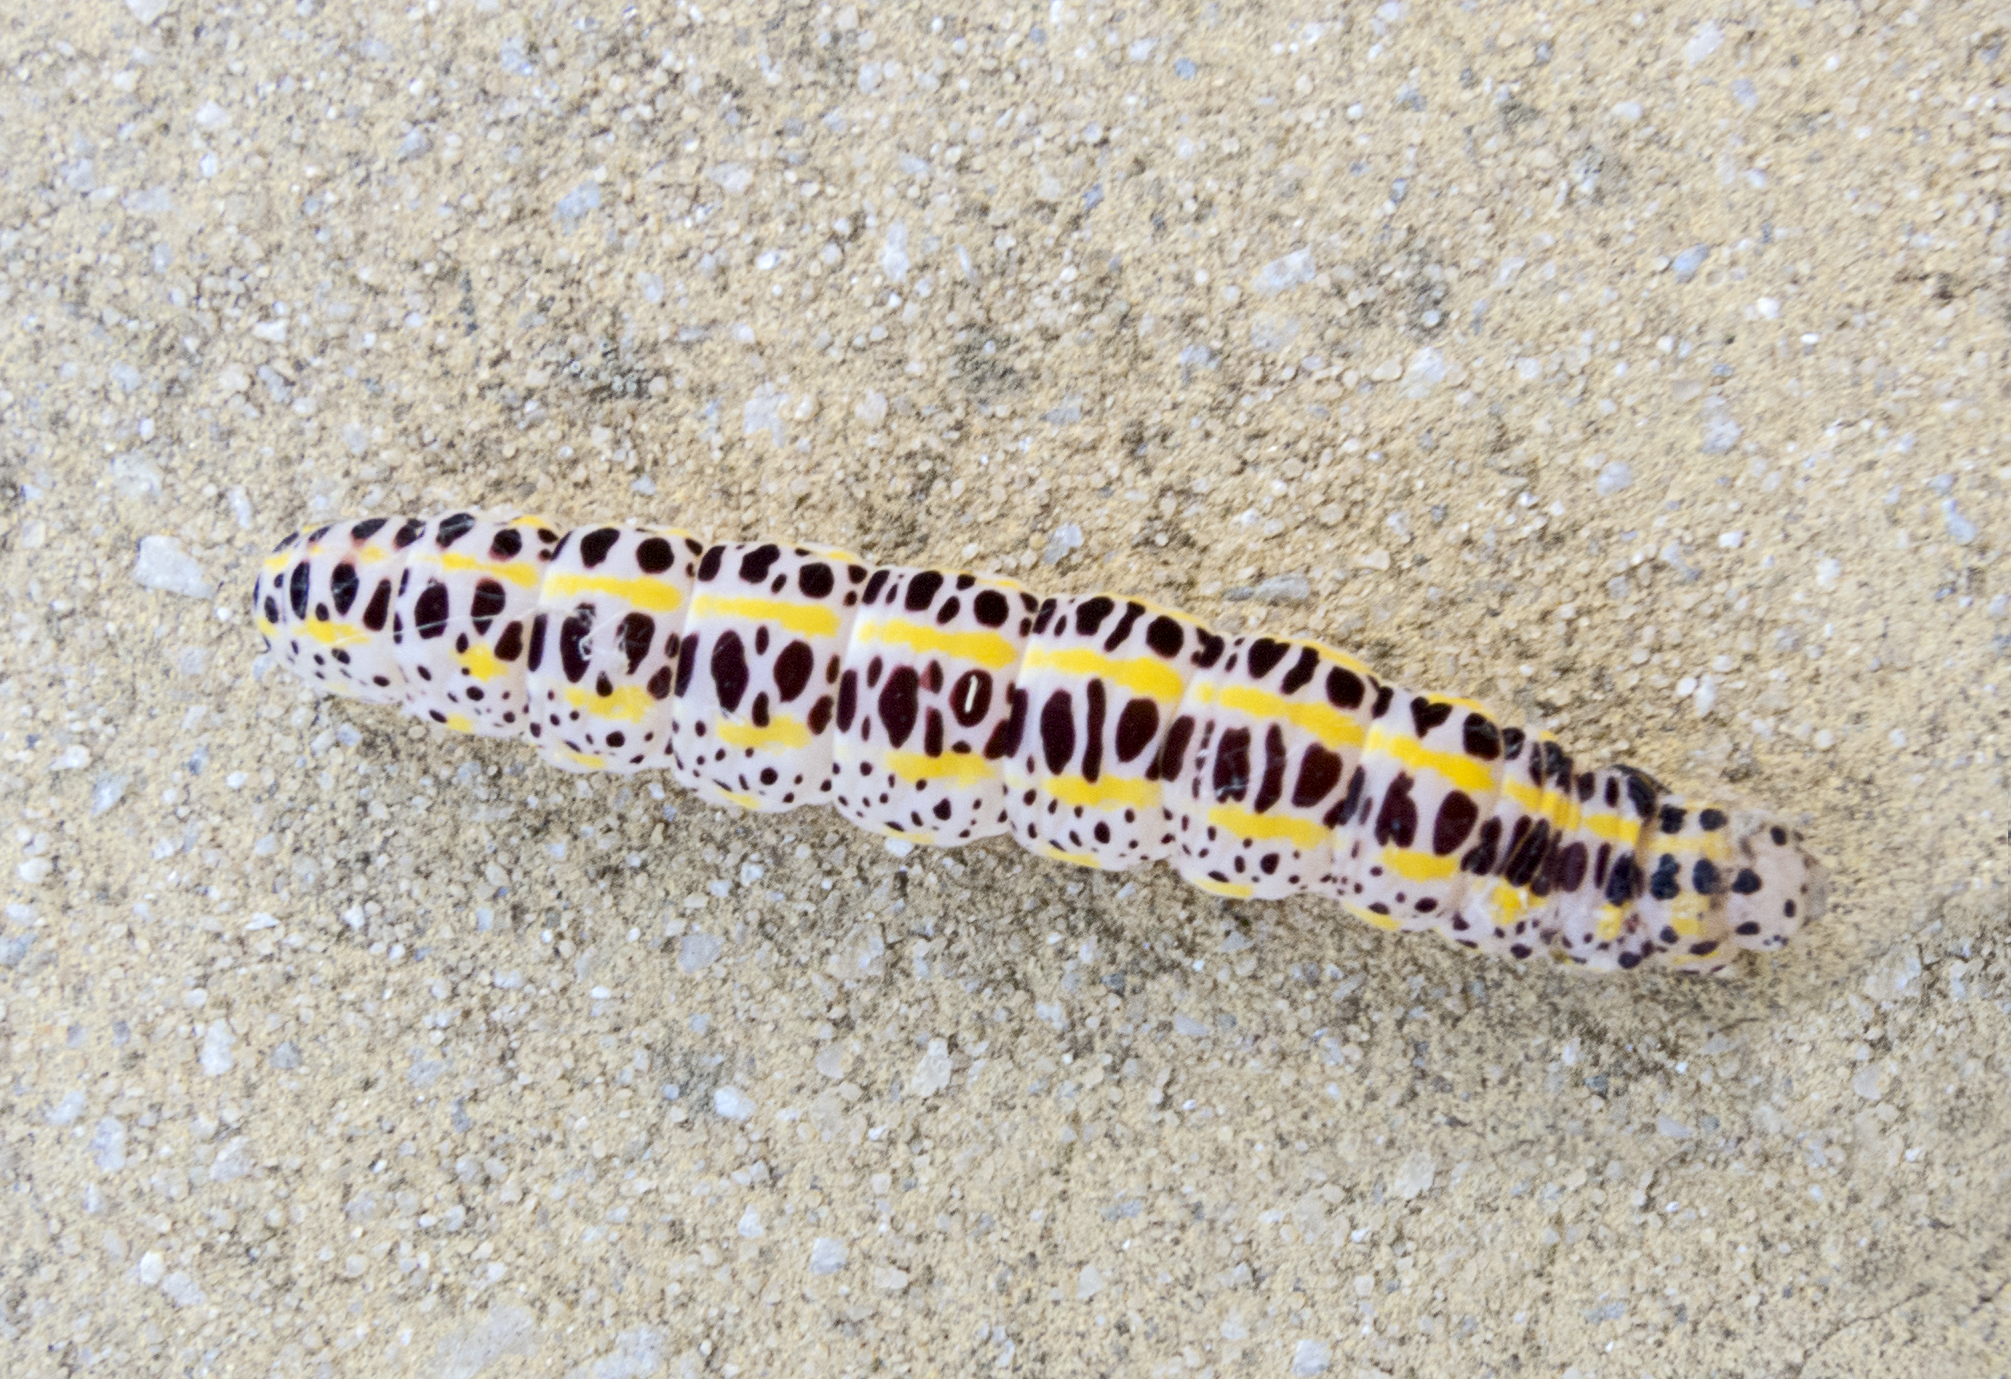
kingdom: Animalia
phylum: Arthropoda
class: Insecta
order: Lepidoptera
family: Noctuidae
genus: Calophasia
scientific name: Calophasia opalina
